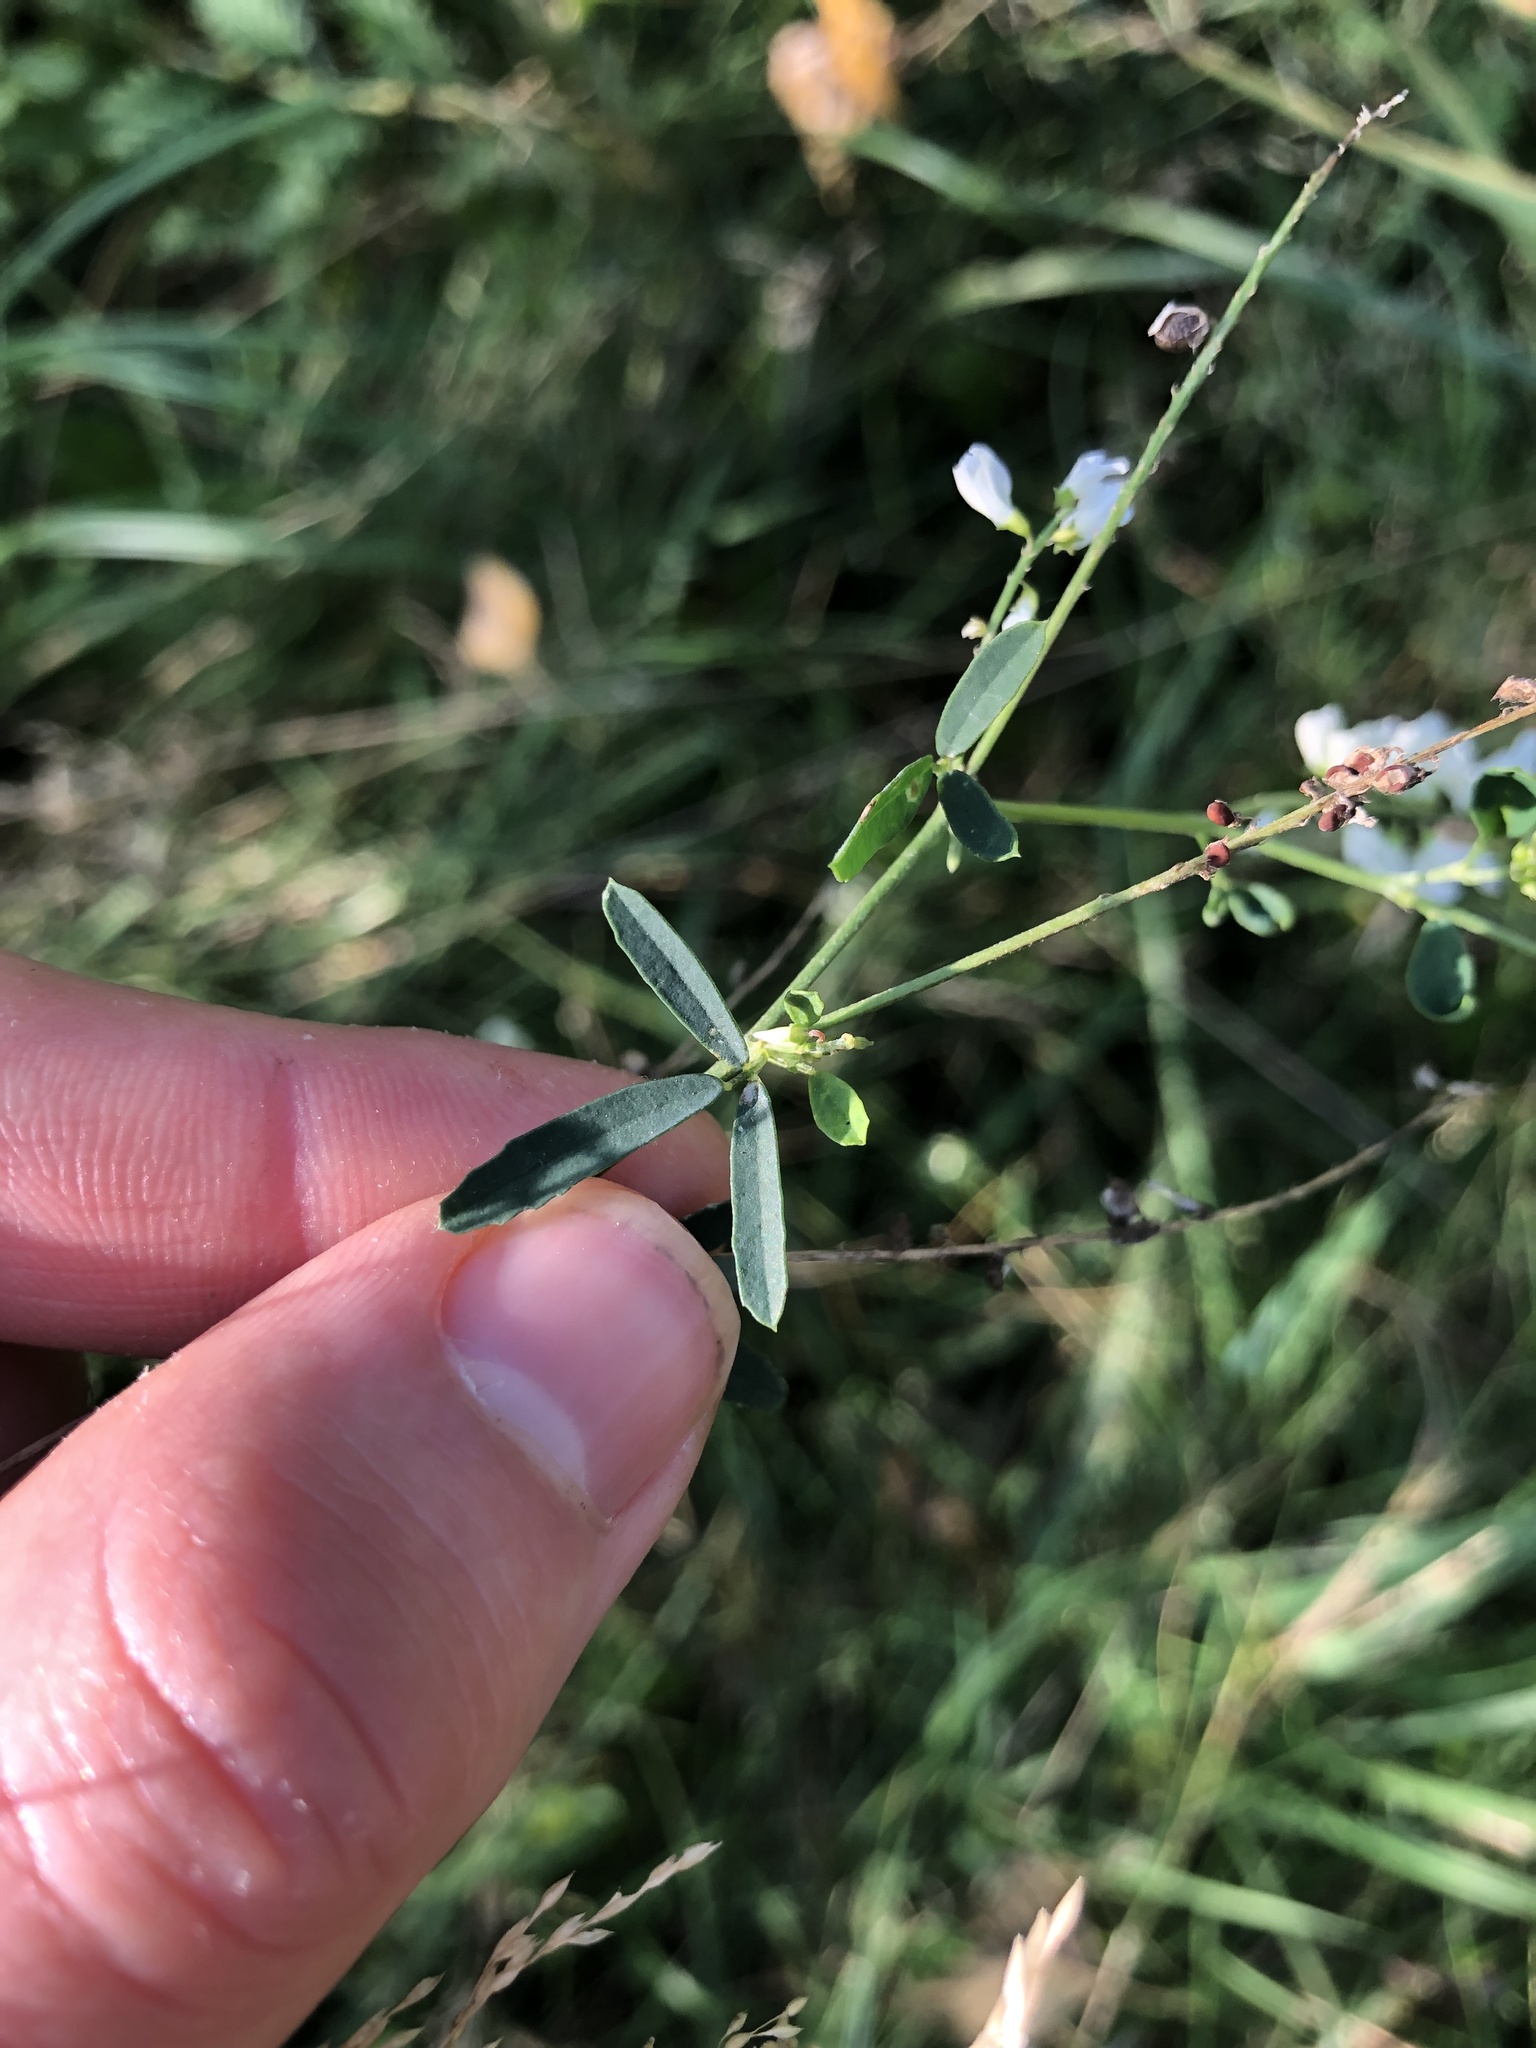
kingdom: Plantae
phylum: Tracheophyta
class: Magnoliopsida
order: Fabales
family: Fabaceae
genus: Melilotus
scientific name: Melilotus albus
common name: White melilot
